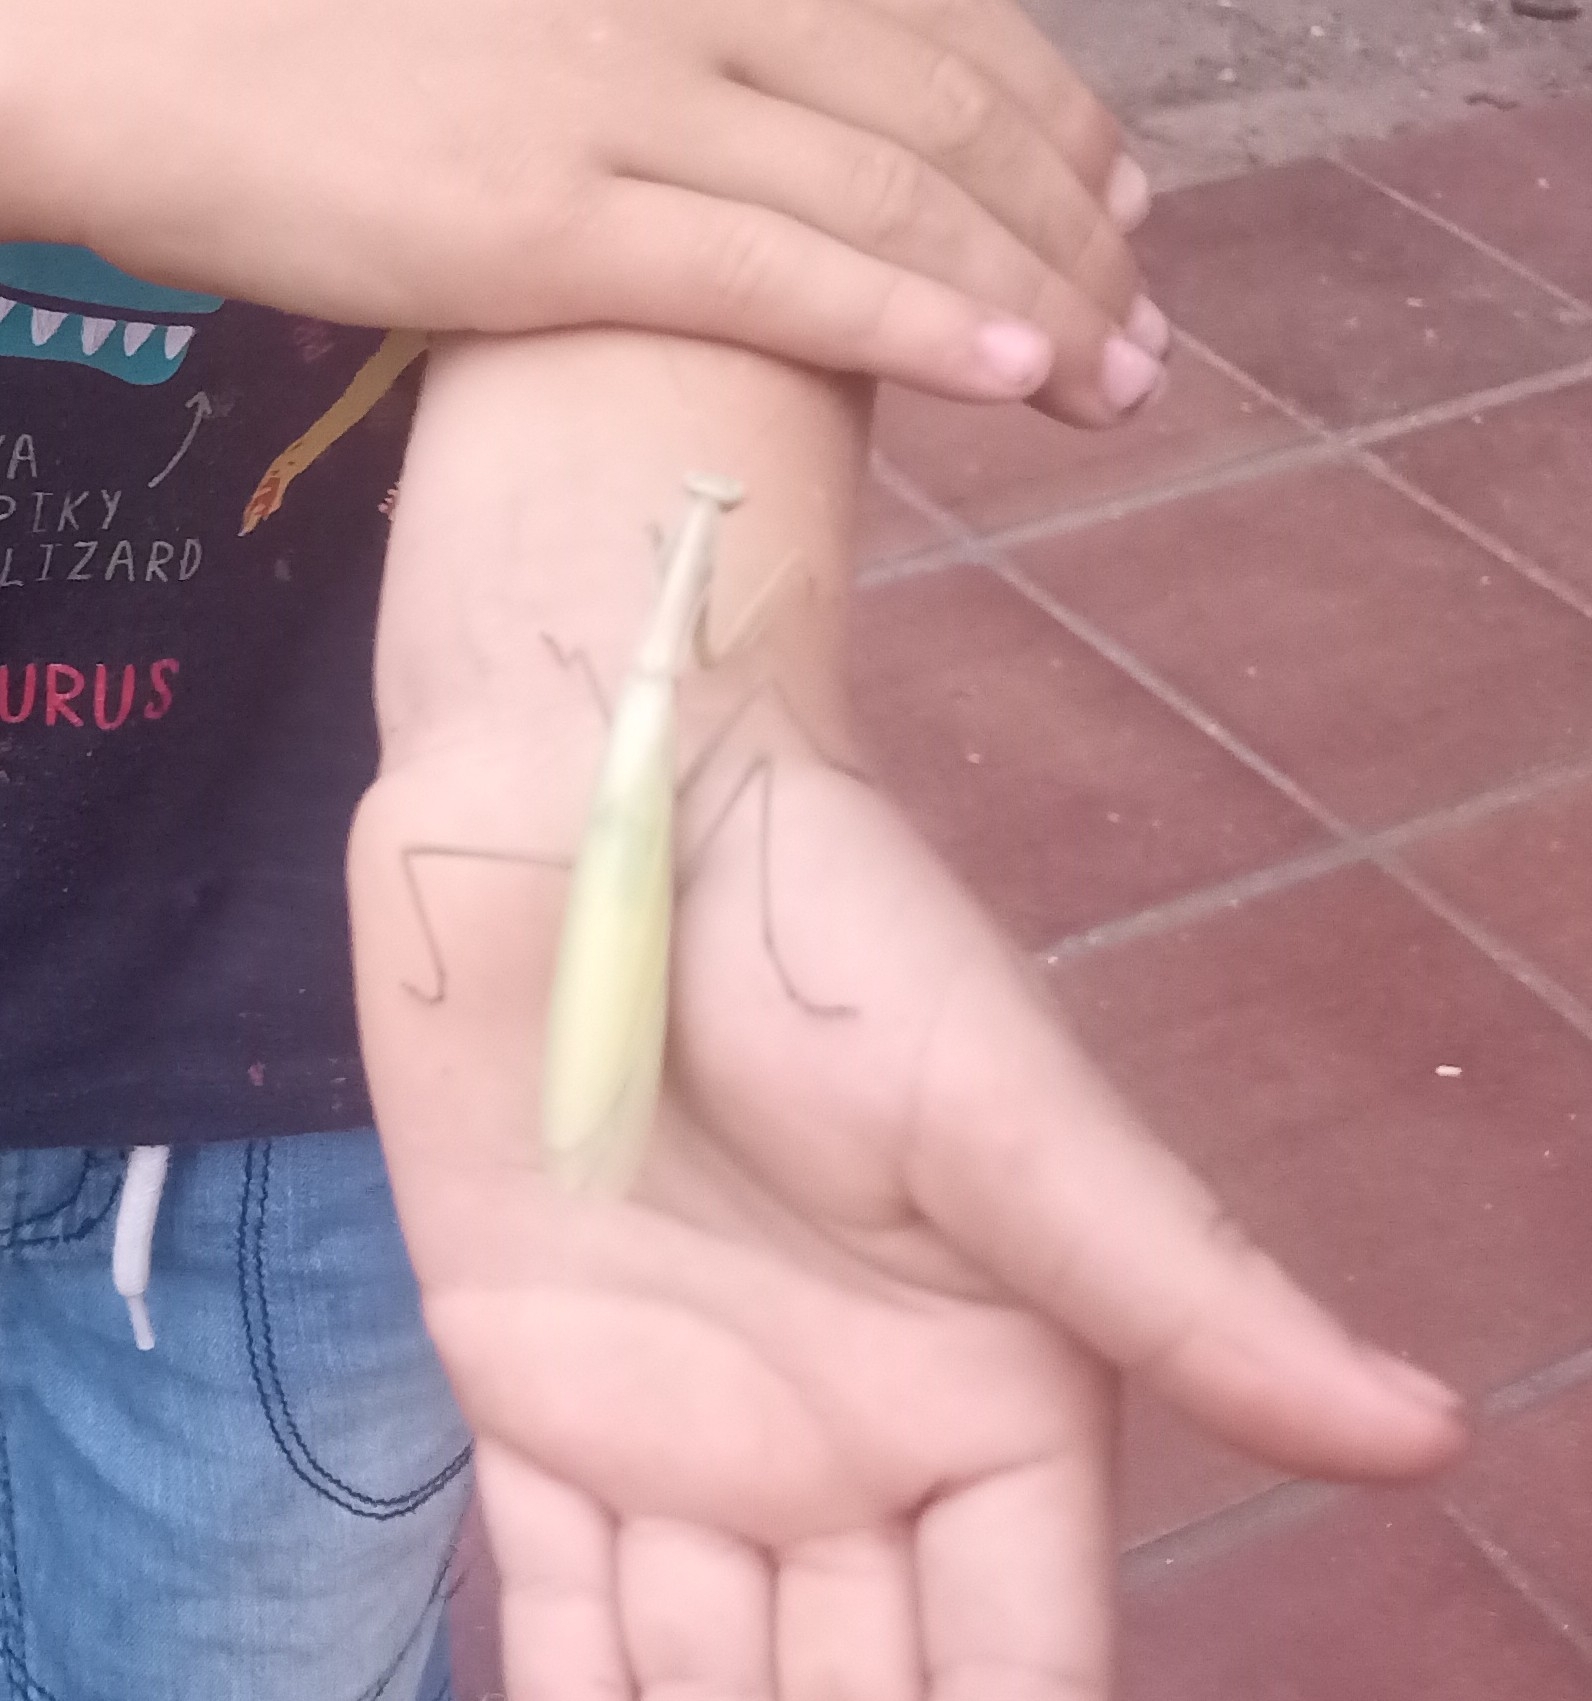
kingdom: Animalia
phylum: Arthropoda
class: Insecta
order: Mantodea
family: Mantidae
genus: Mantis
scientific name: Mantis religiosa
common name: Praying mantis
